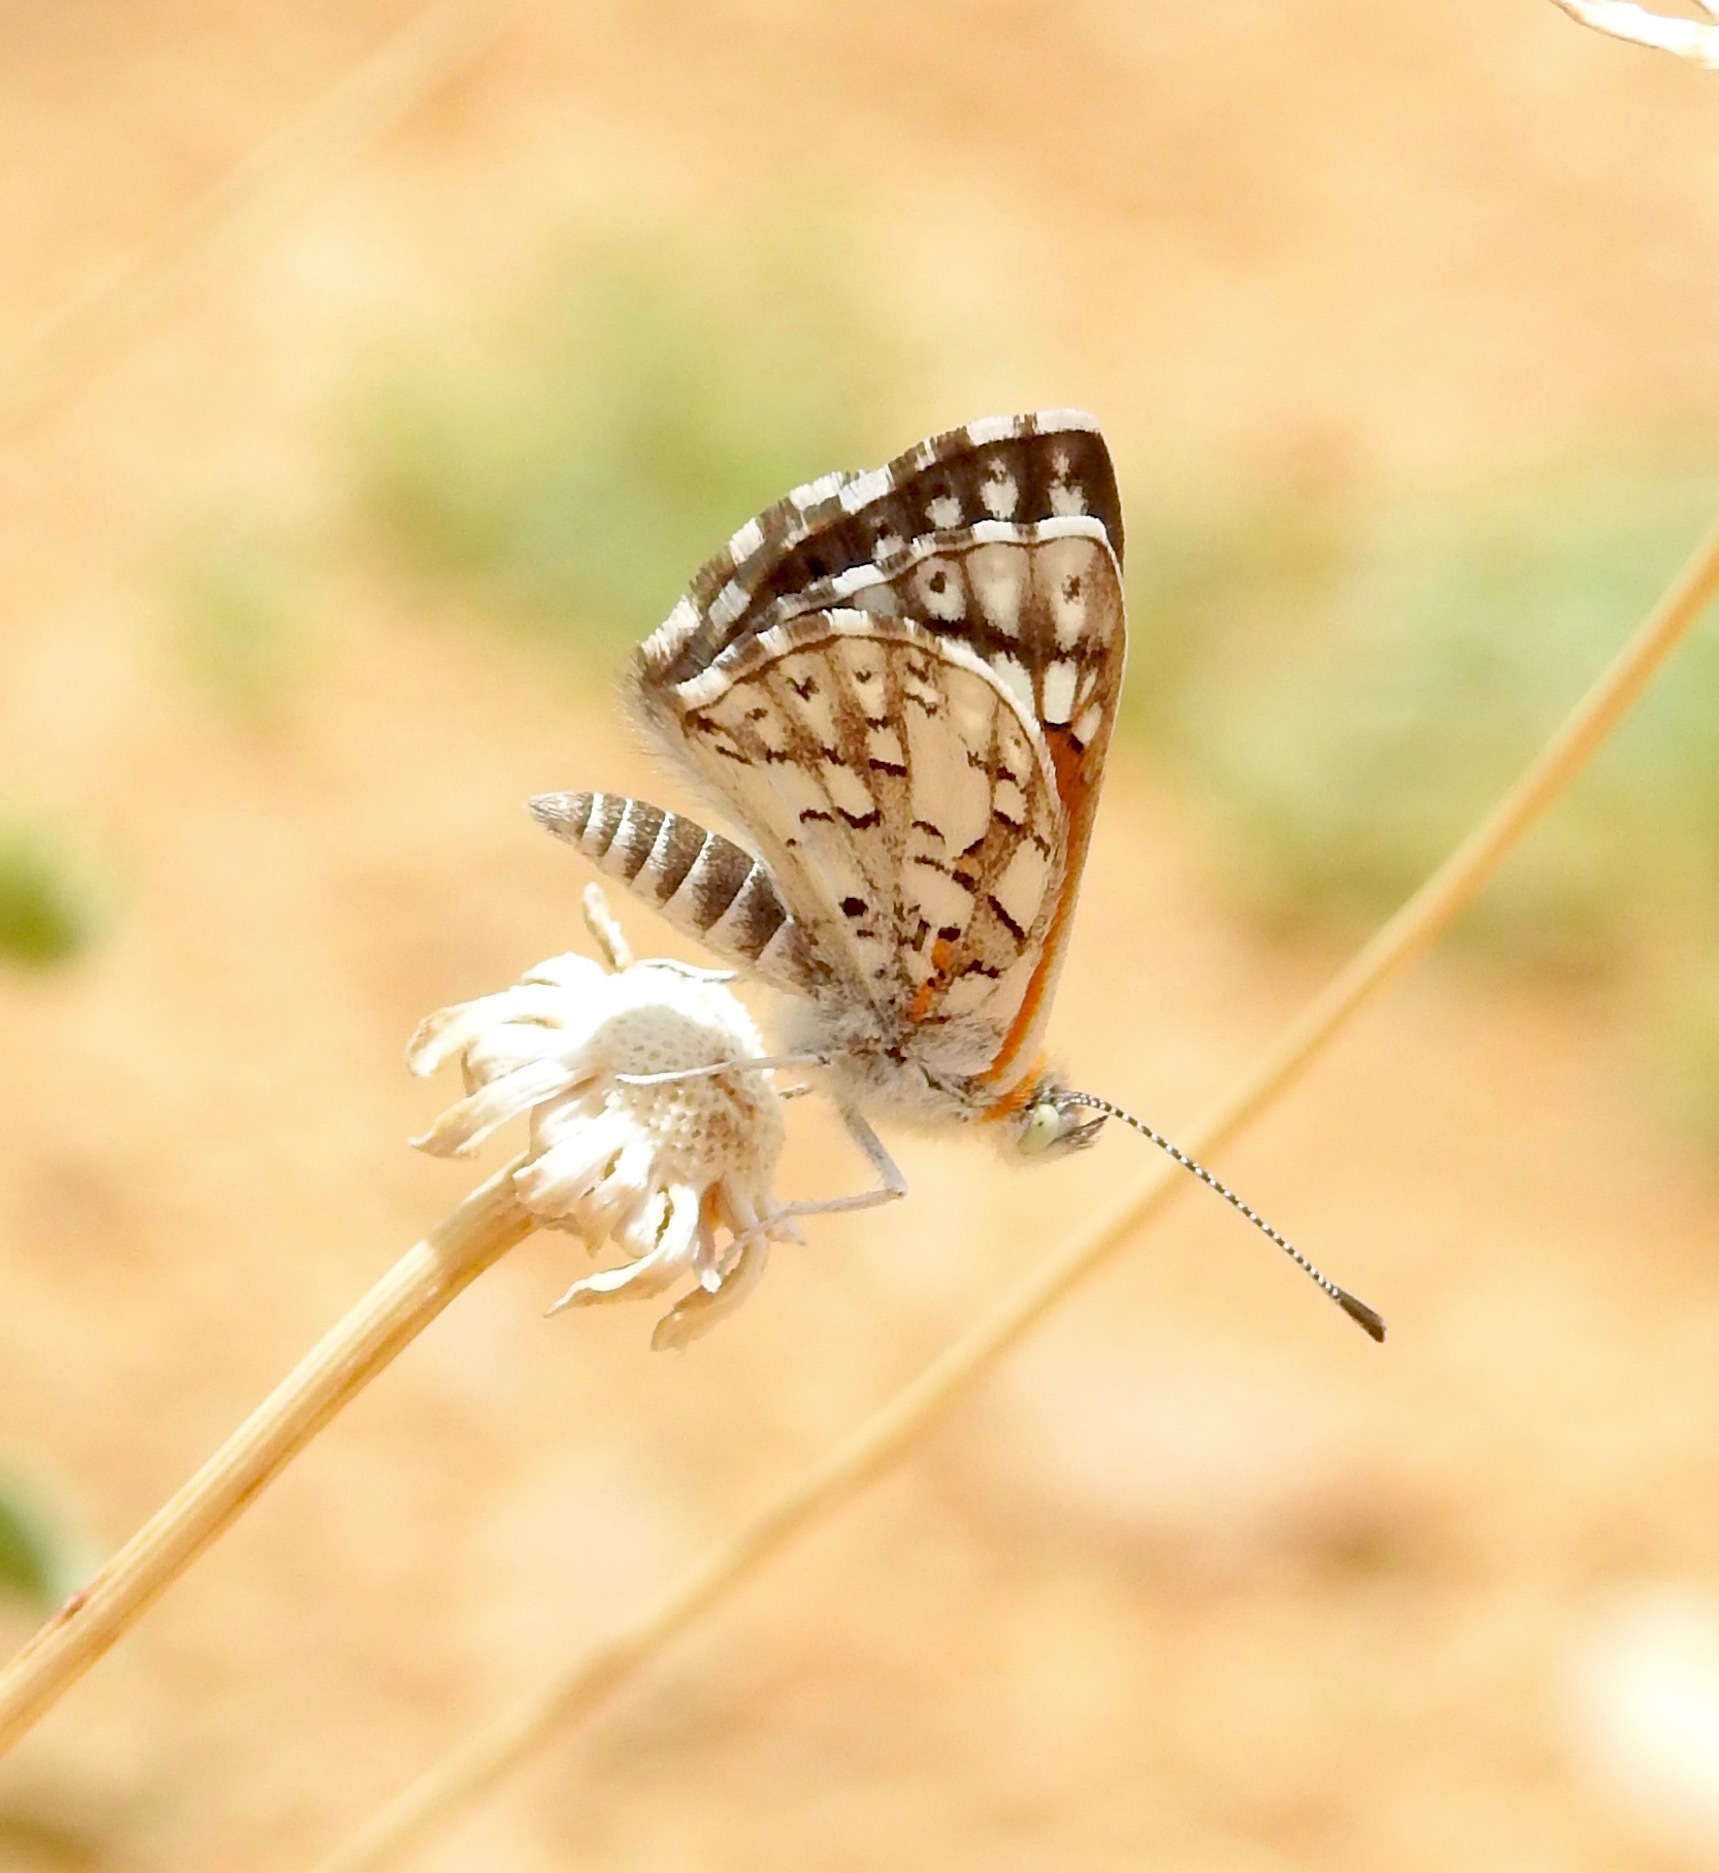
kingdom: Animalia
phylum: Arthropoda
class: Insecta
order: Lepidoptera
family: Riodinidae
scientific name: Riodinidae
